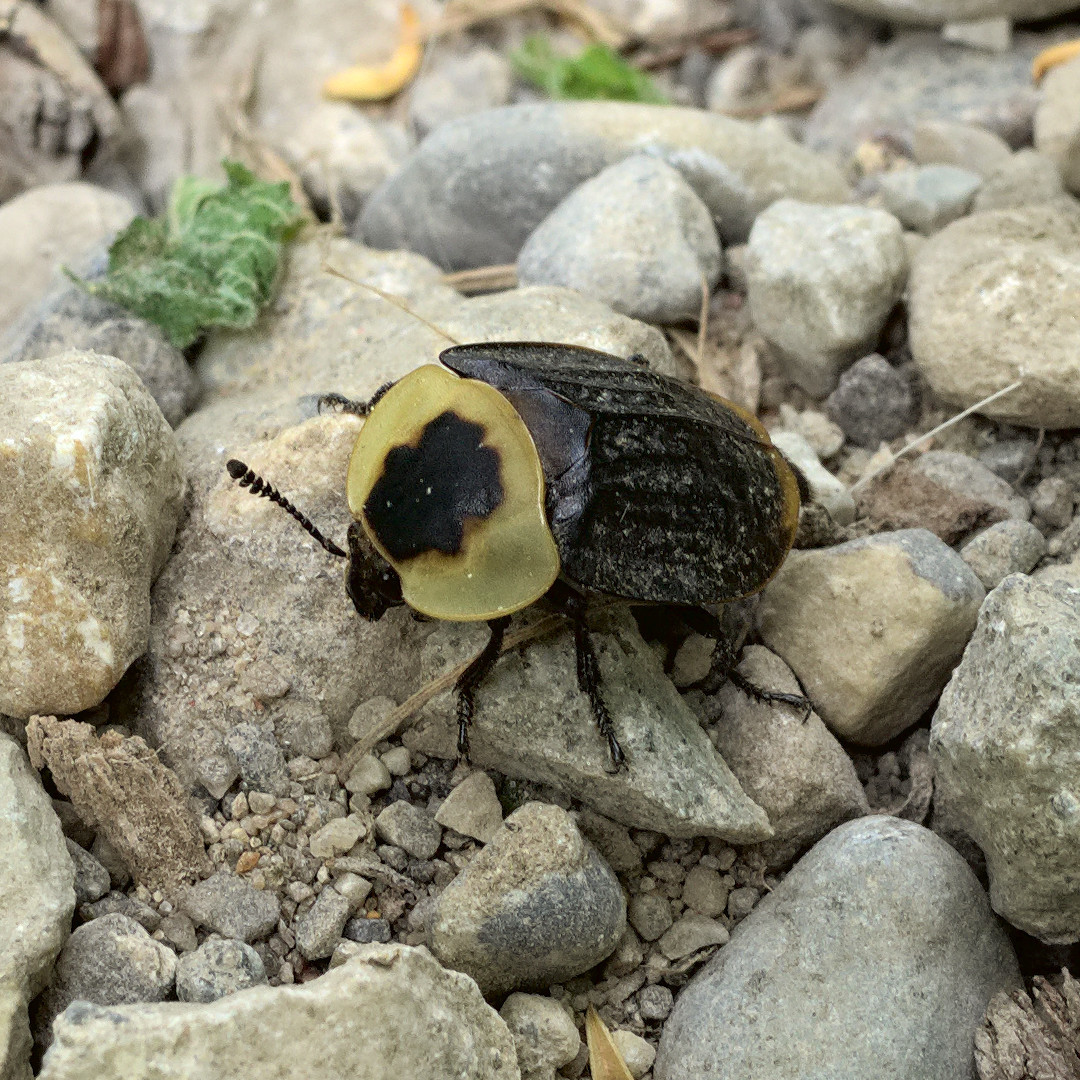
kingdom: Animalia
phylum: Arthropoda
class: Insecta
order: Coleoptera
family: Staphylinidae
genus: Necrophila
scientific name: Necrophila americana
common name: American carrion beetle
